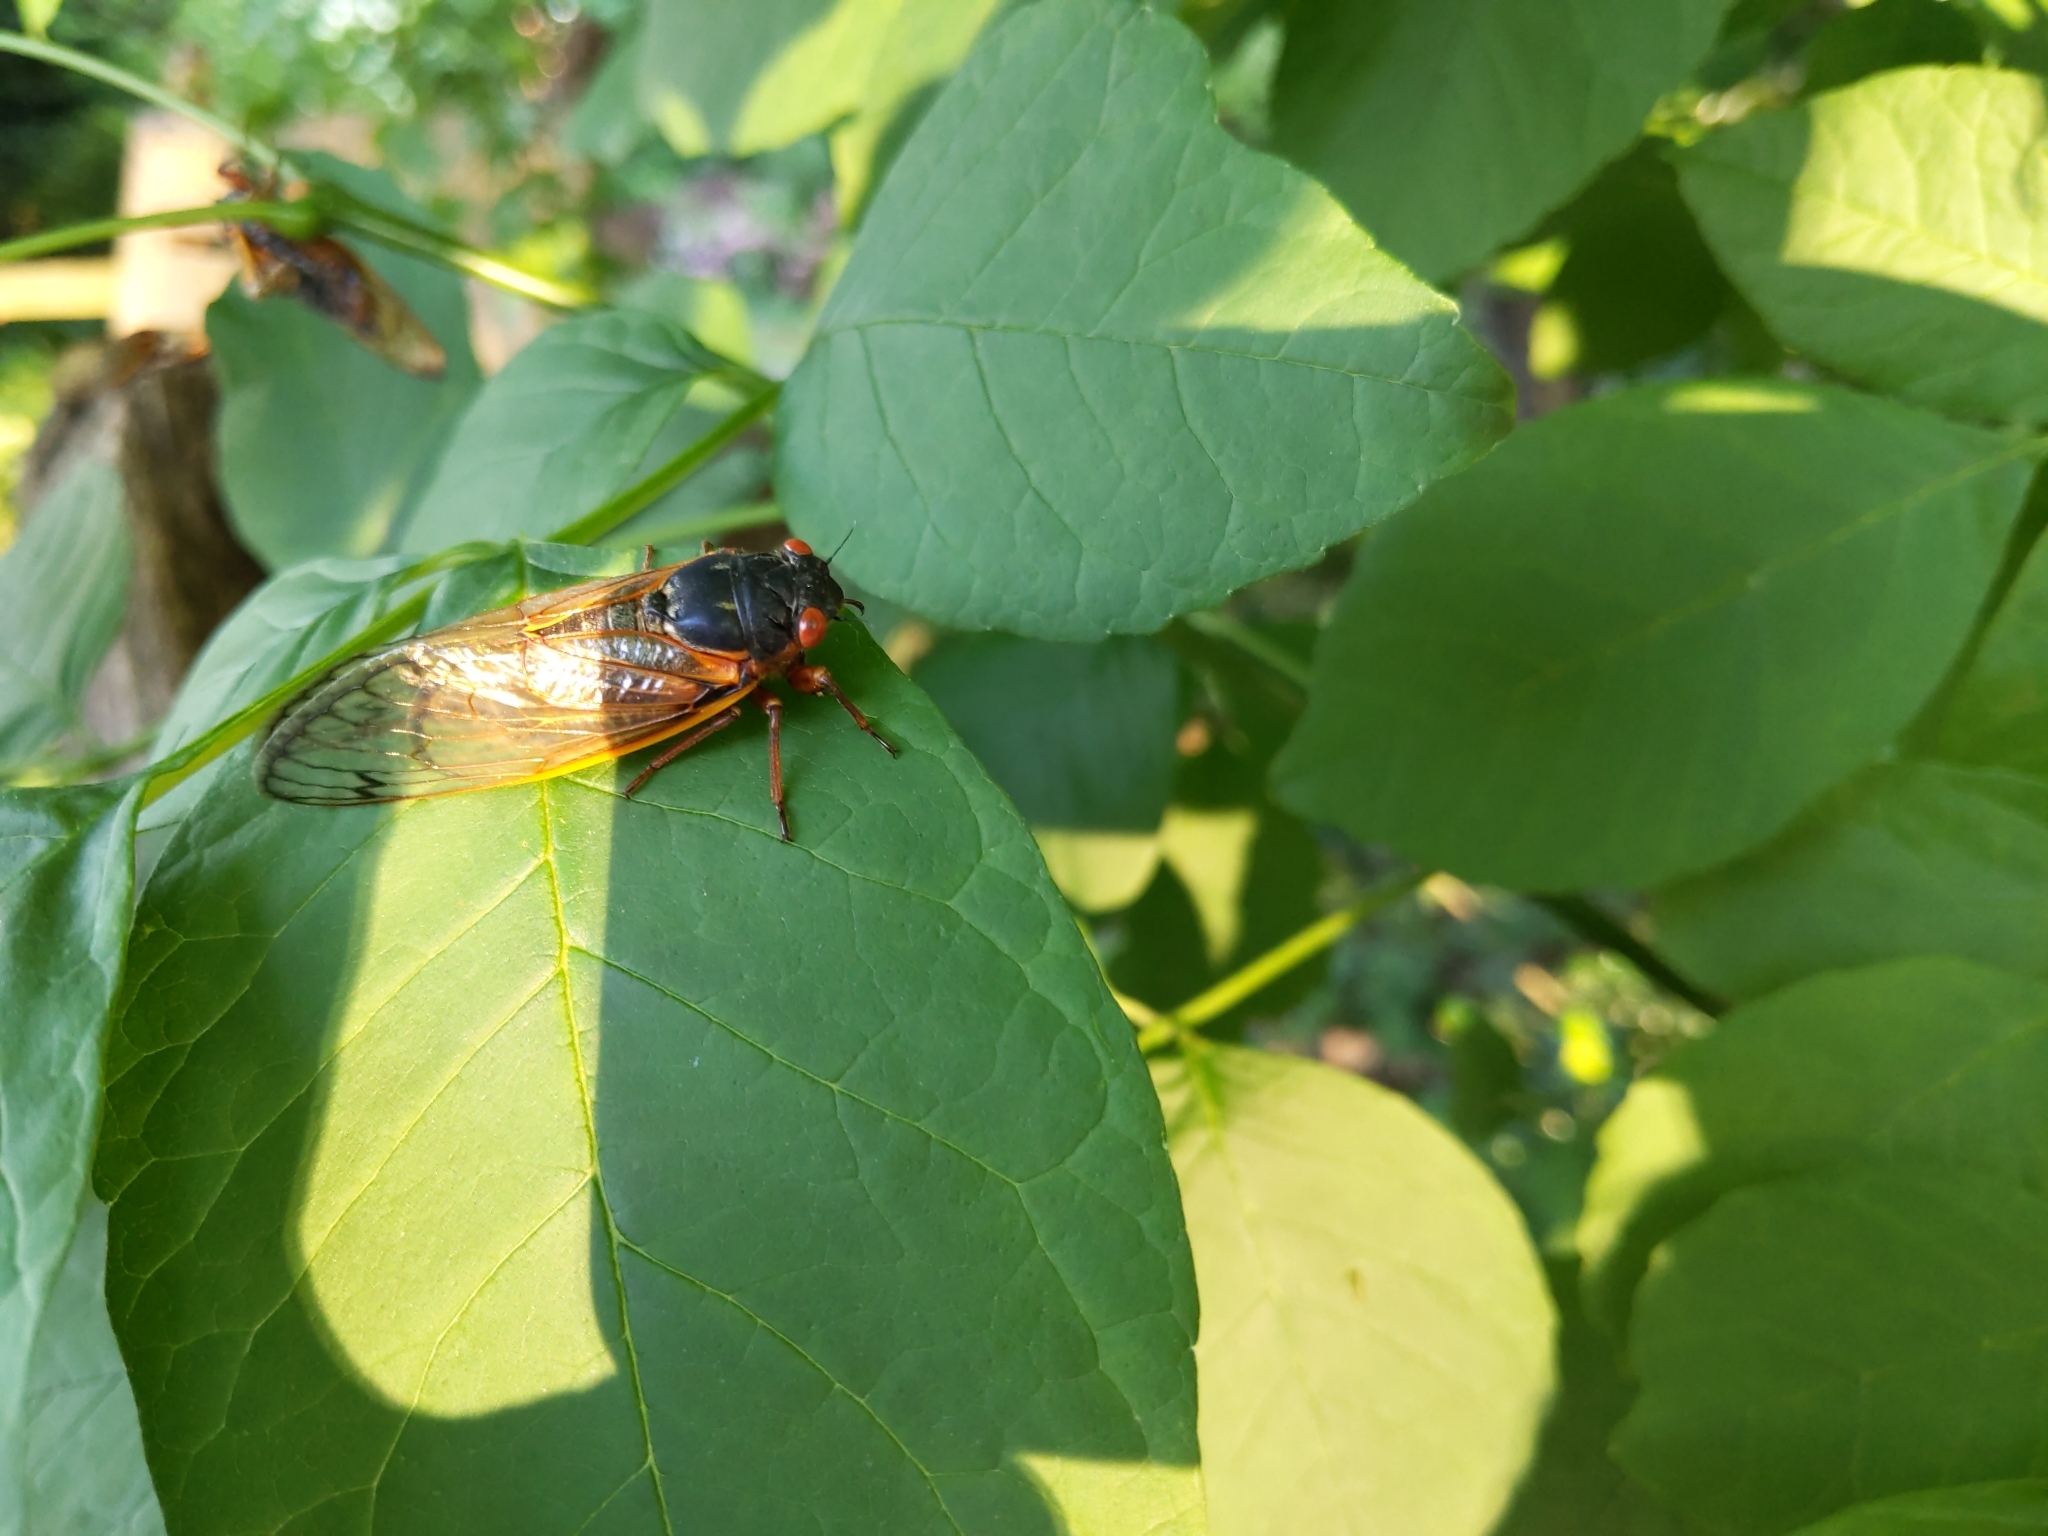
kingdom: Animalia
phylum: Arthropoda
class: Insecta
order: Hemiptera
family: Cicadidae
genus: Magicicada
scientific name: Magicicada septendecim
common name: Periodical cicada
